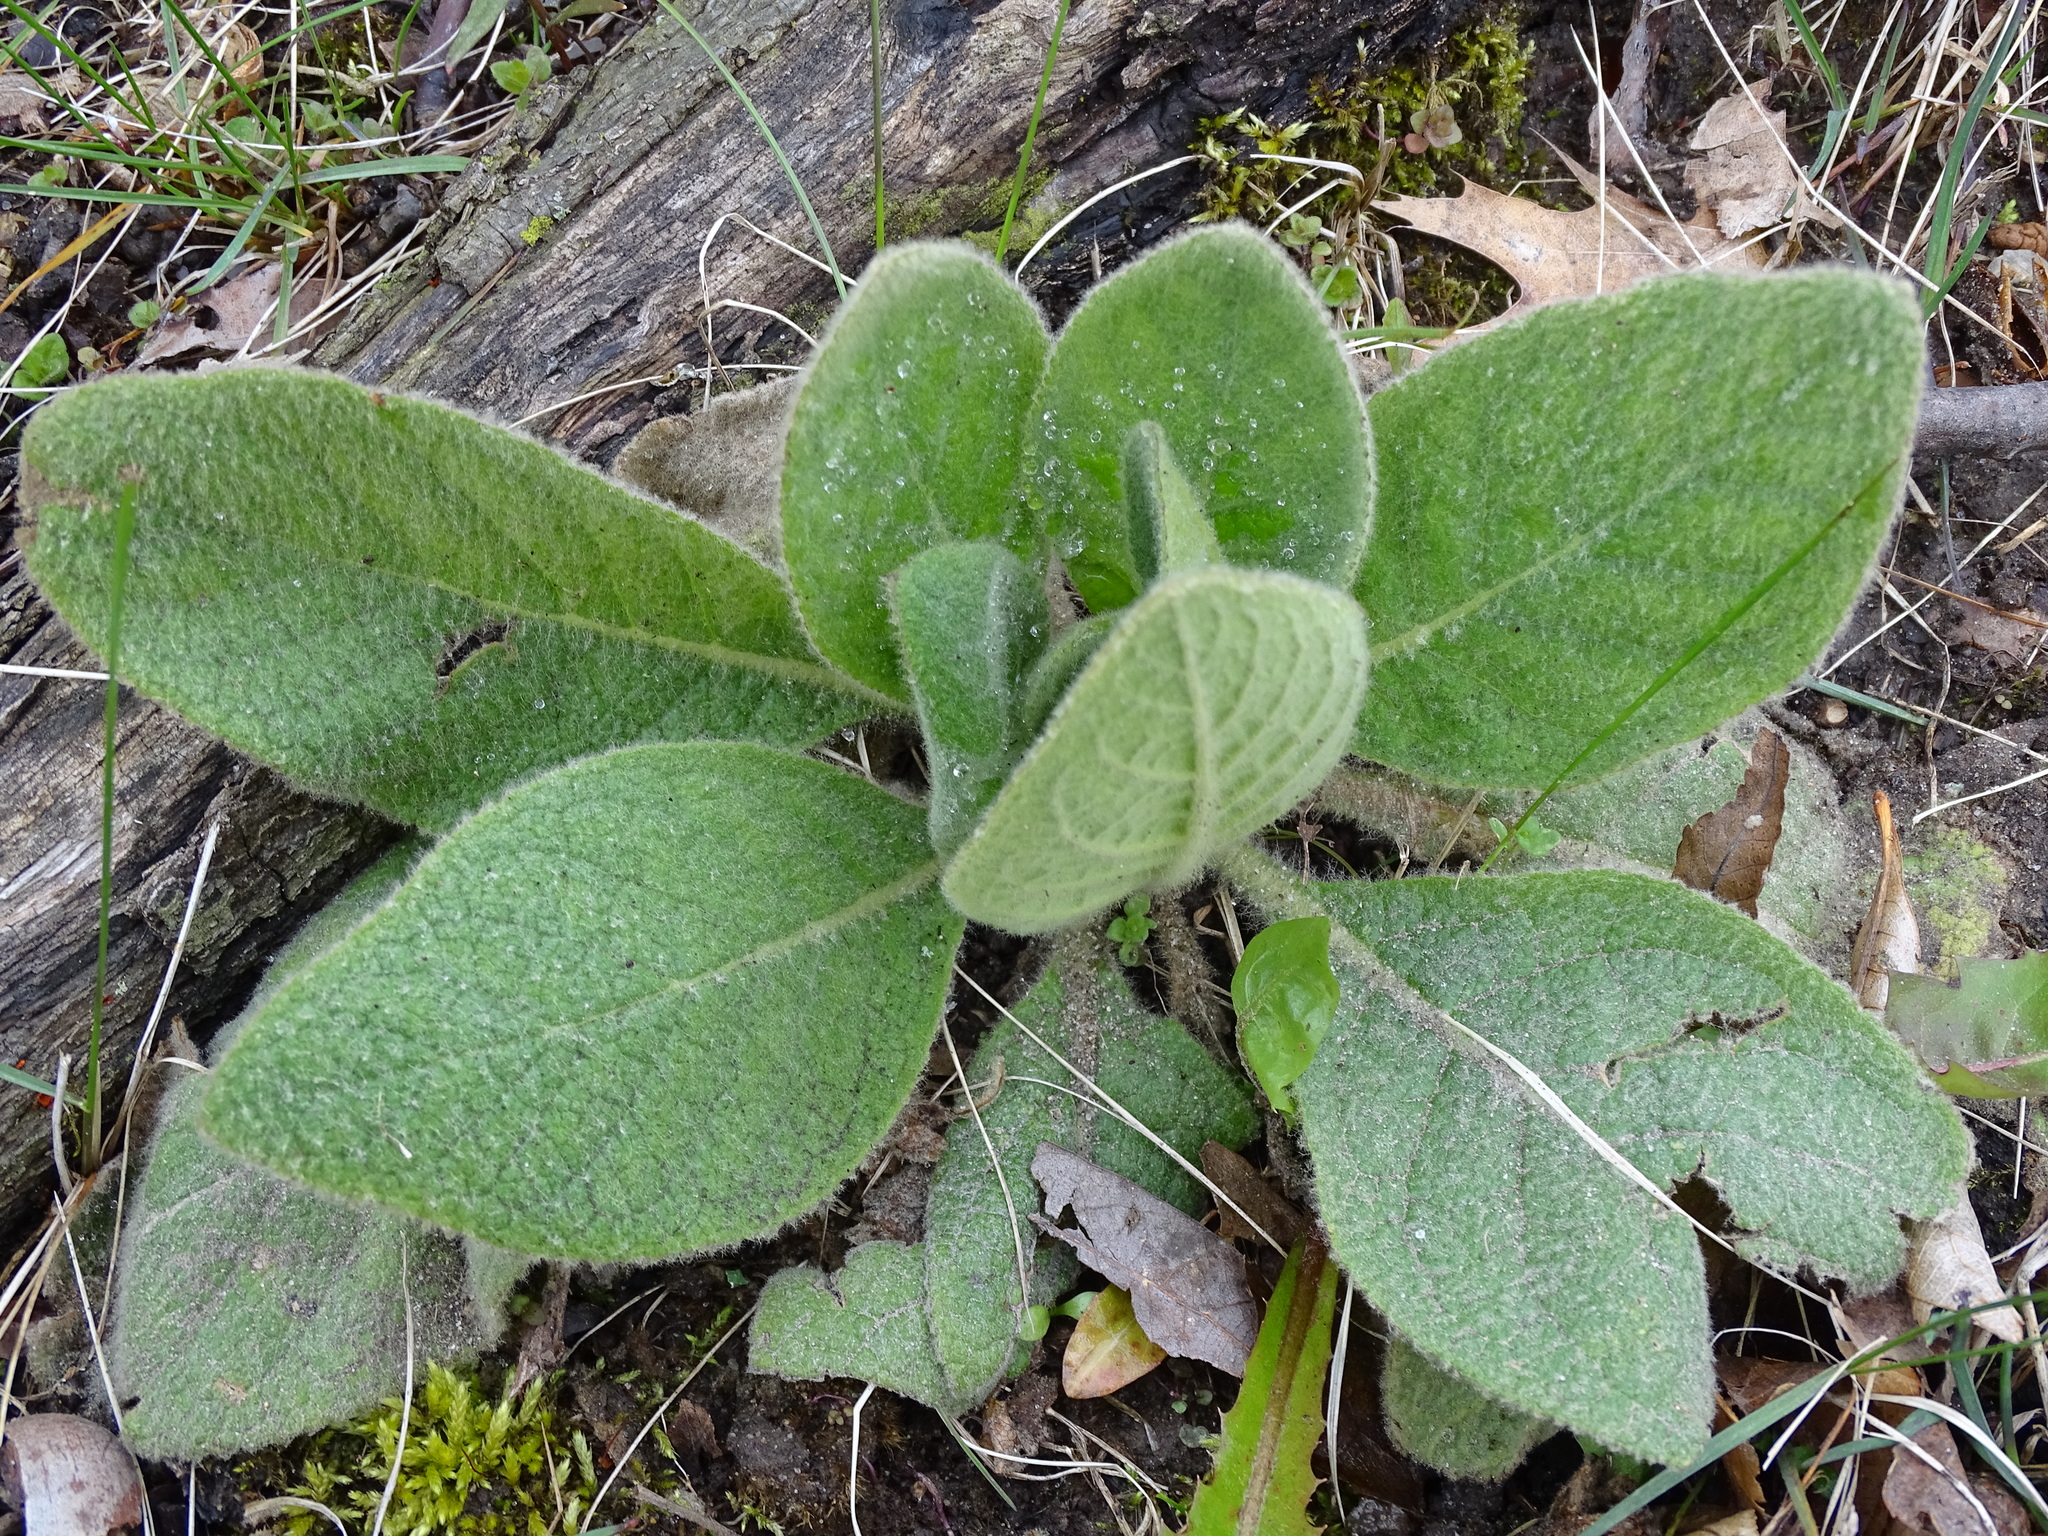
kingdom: Plantae
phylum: Tracheophyta
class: Magnoliopsida
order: Lamiales
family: Scrophulariaceae
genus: Verbascum
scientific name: Verbascum thapsus
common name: Common mullein
